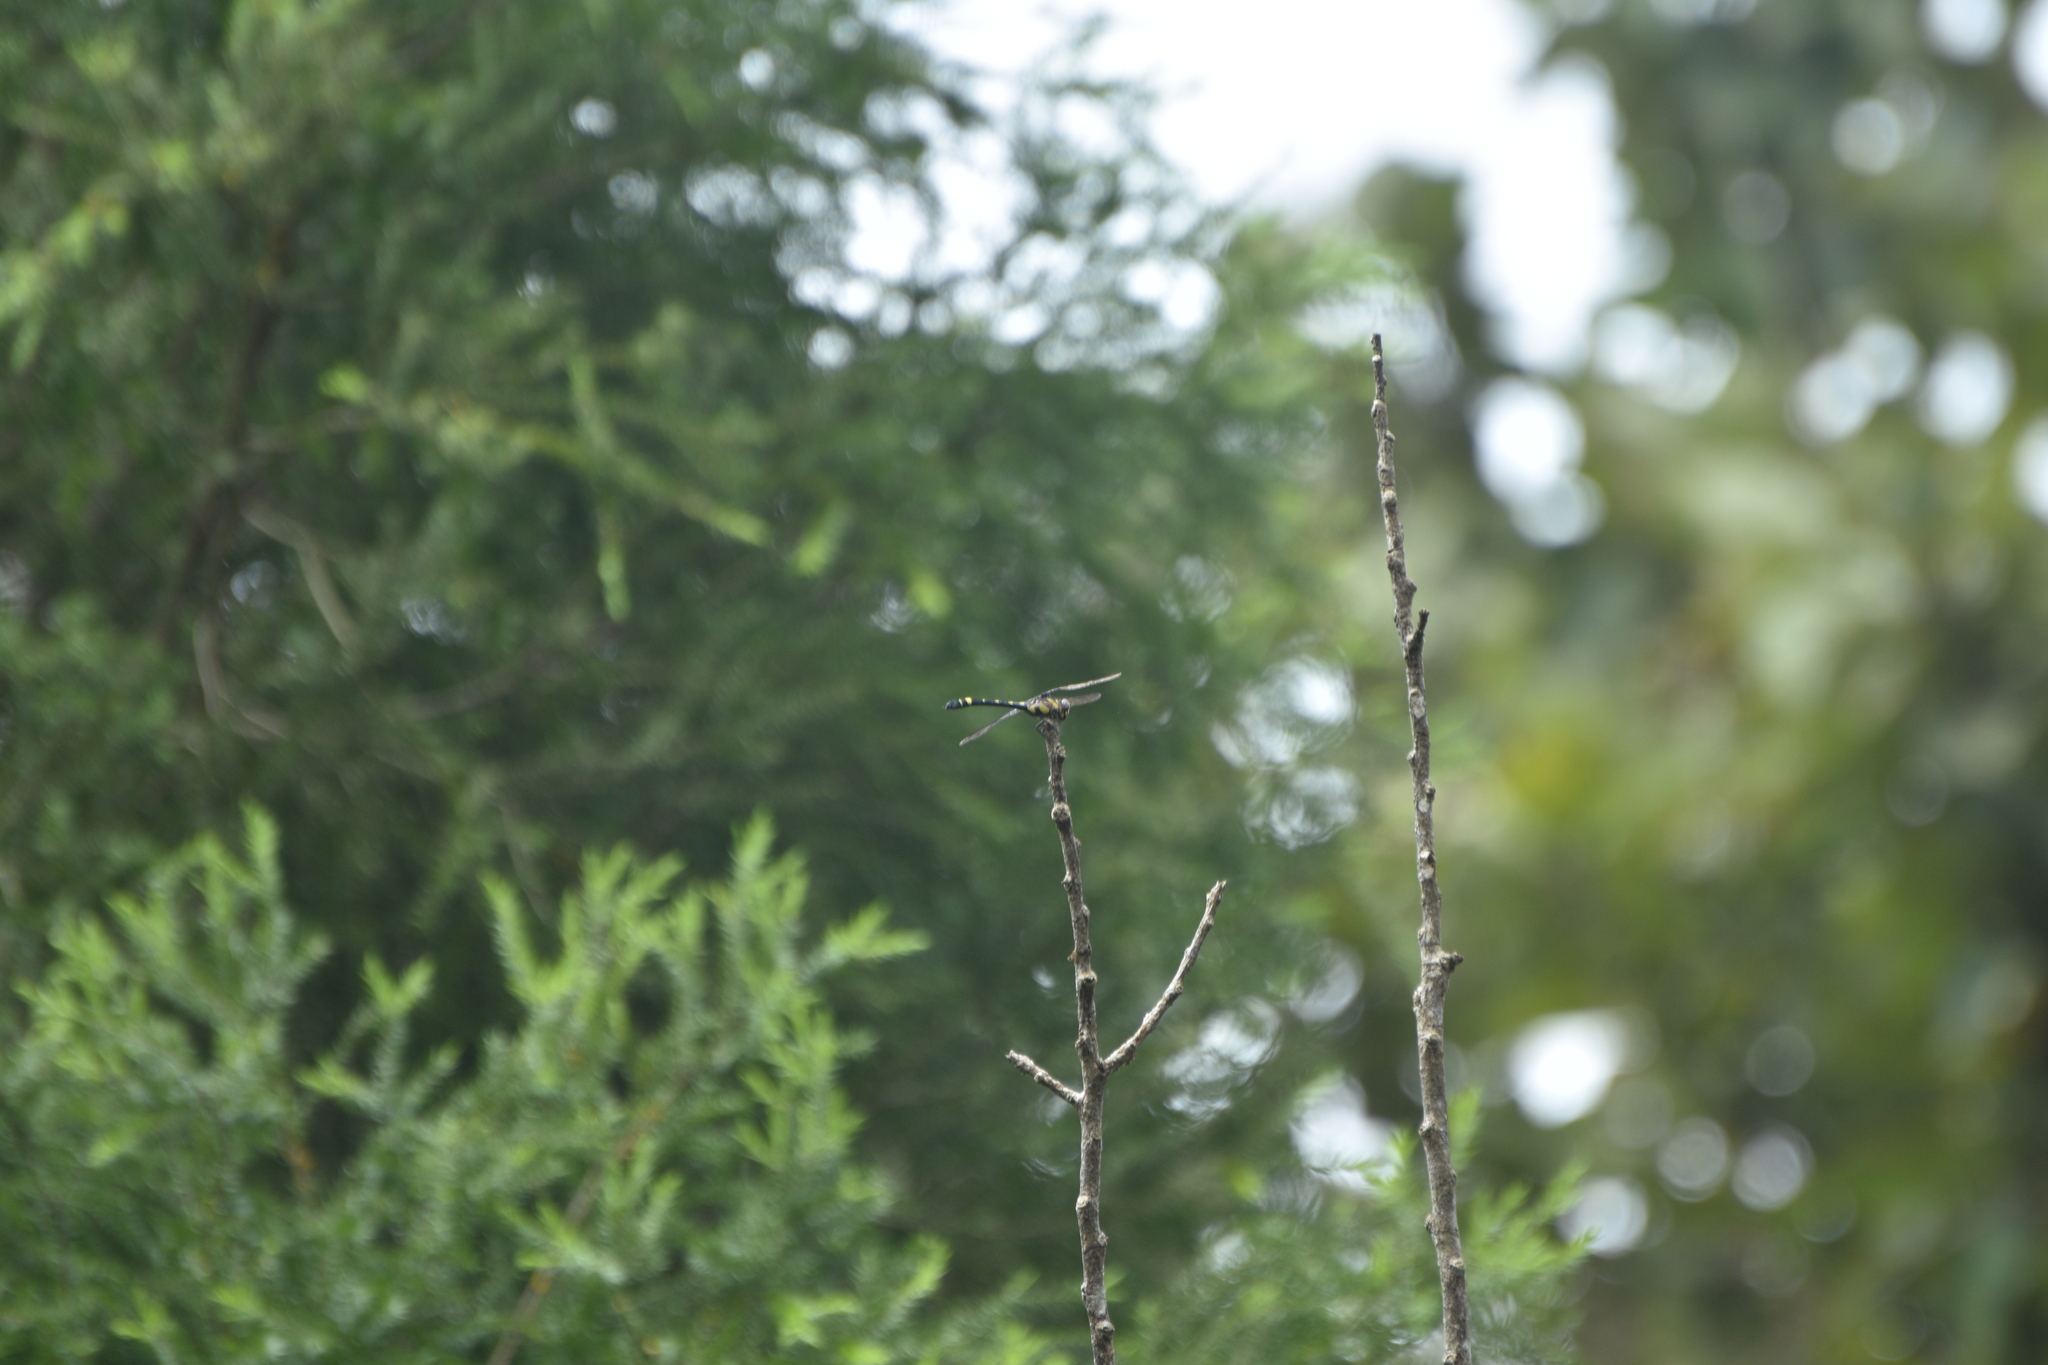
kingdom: Animalia
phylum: Arthropoda
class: Insecta
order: Odonata
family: Gomphidae
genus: Gomphidia
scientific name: Gomphidia kodaguensis
